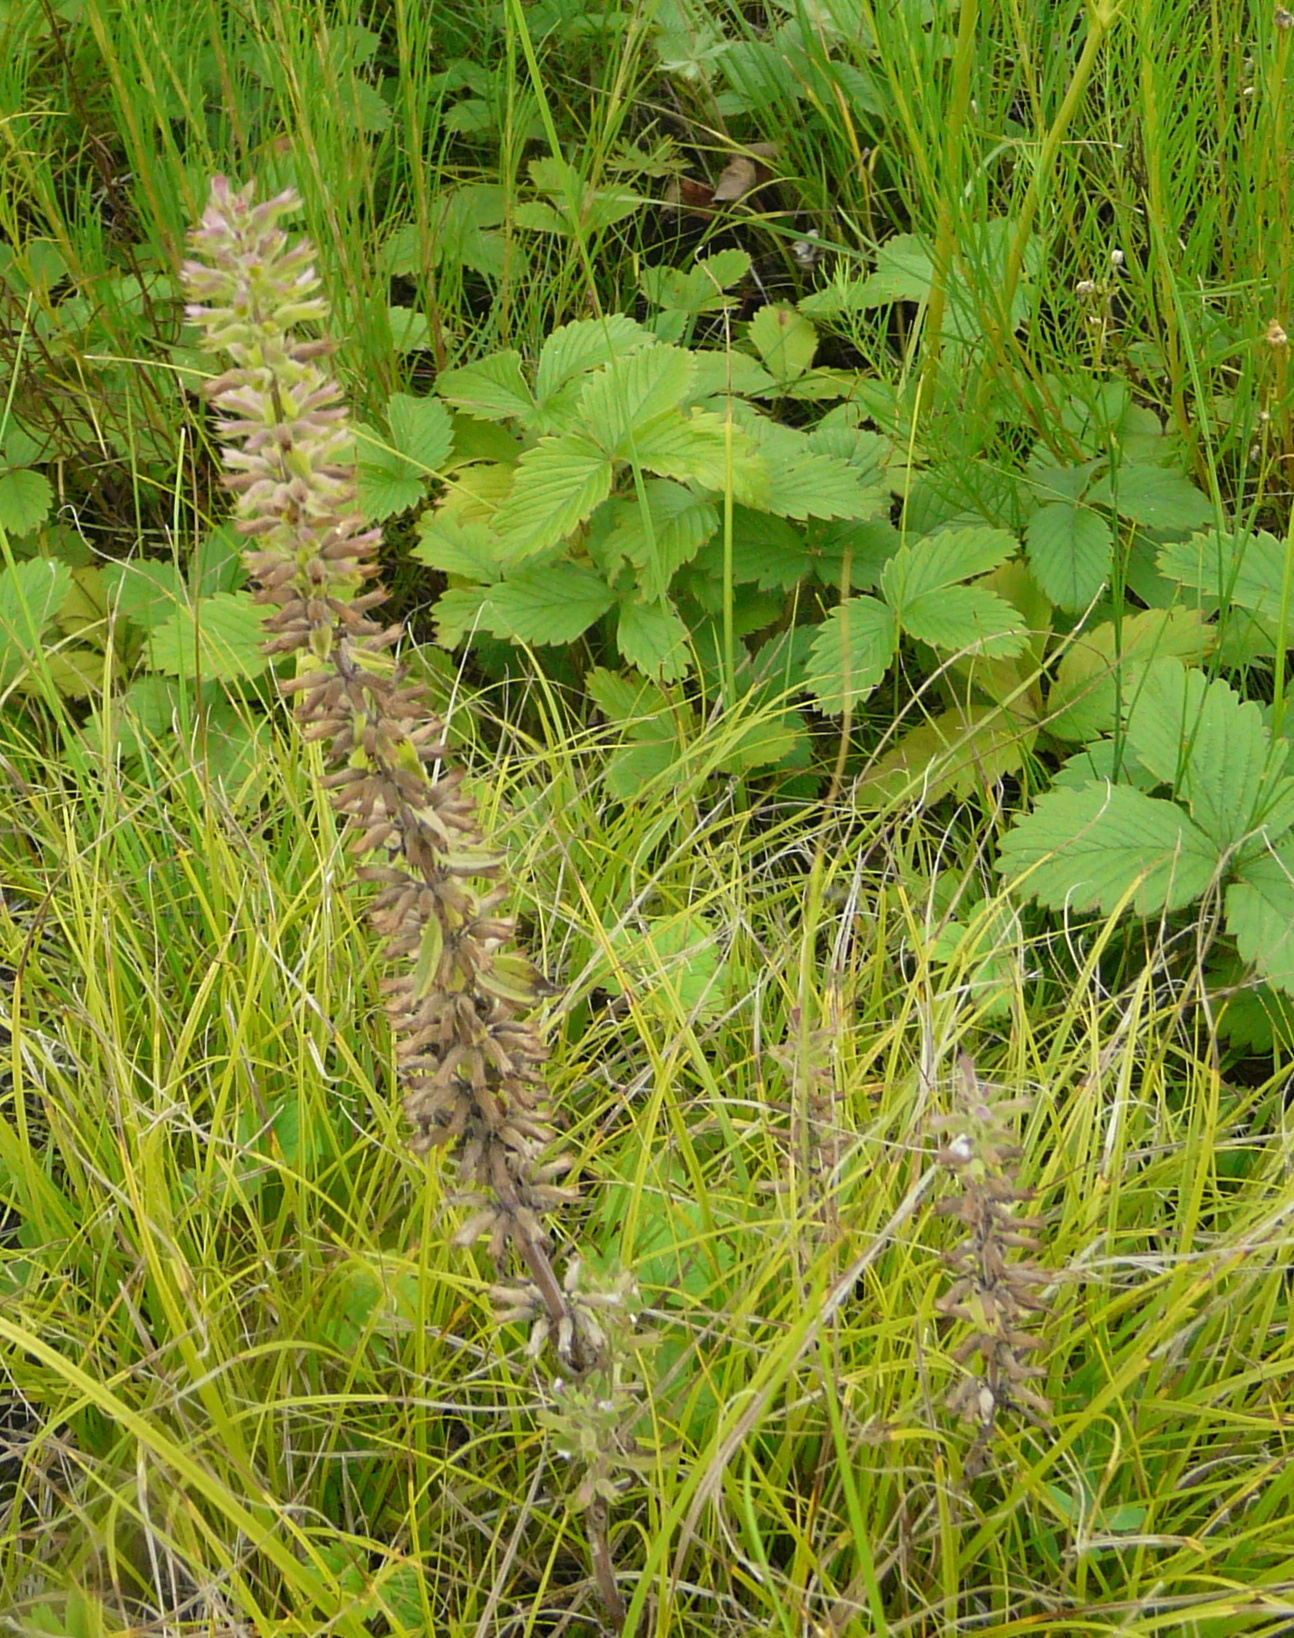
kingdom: Plantae
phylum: Tracheophyta
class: Magnoliopsida
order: Lamiales
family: Lamiaceae
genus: Dracocephalum
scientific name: Dracocephalum thymiflorum
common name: Thymeleaf dragonhead
